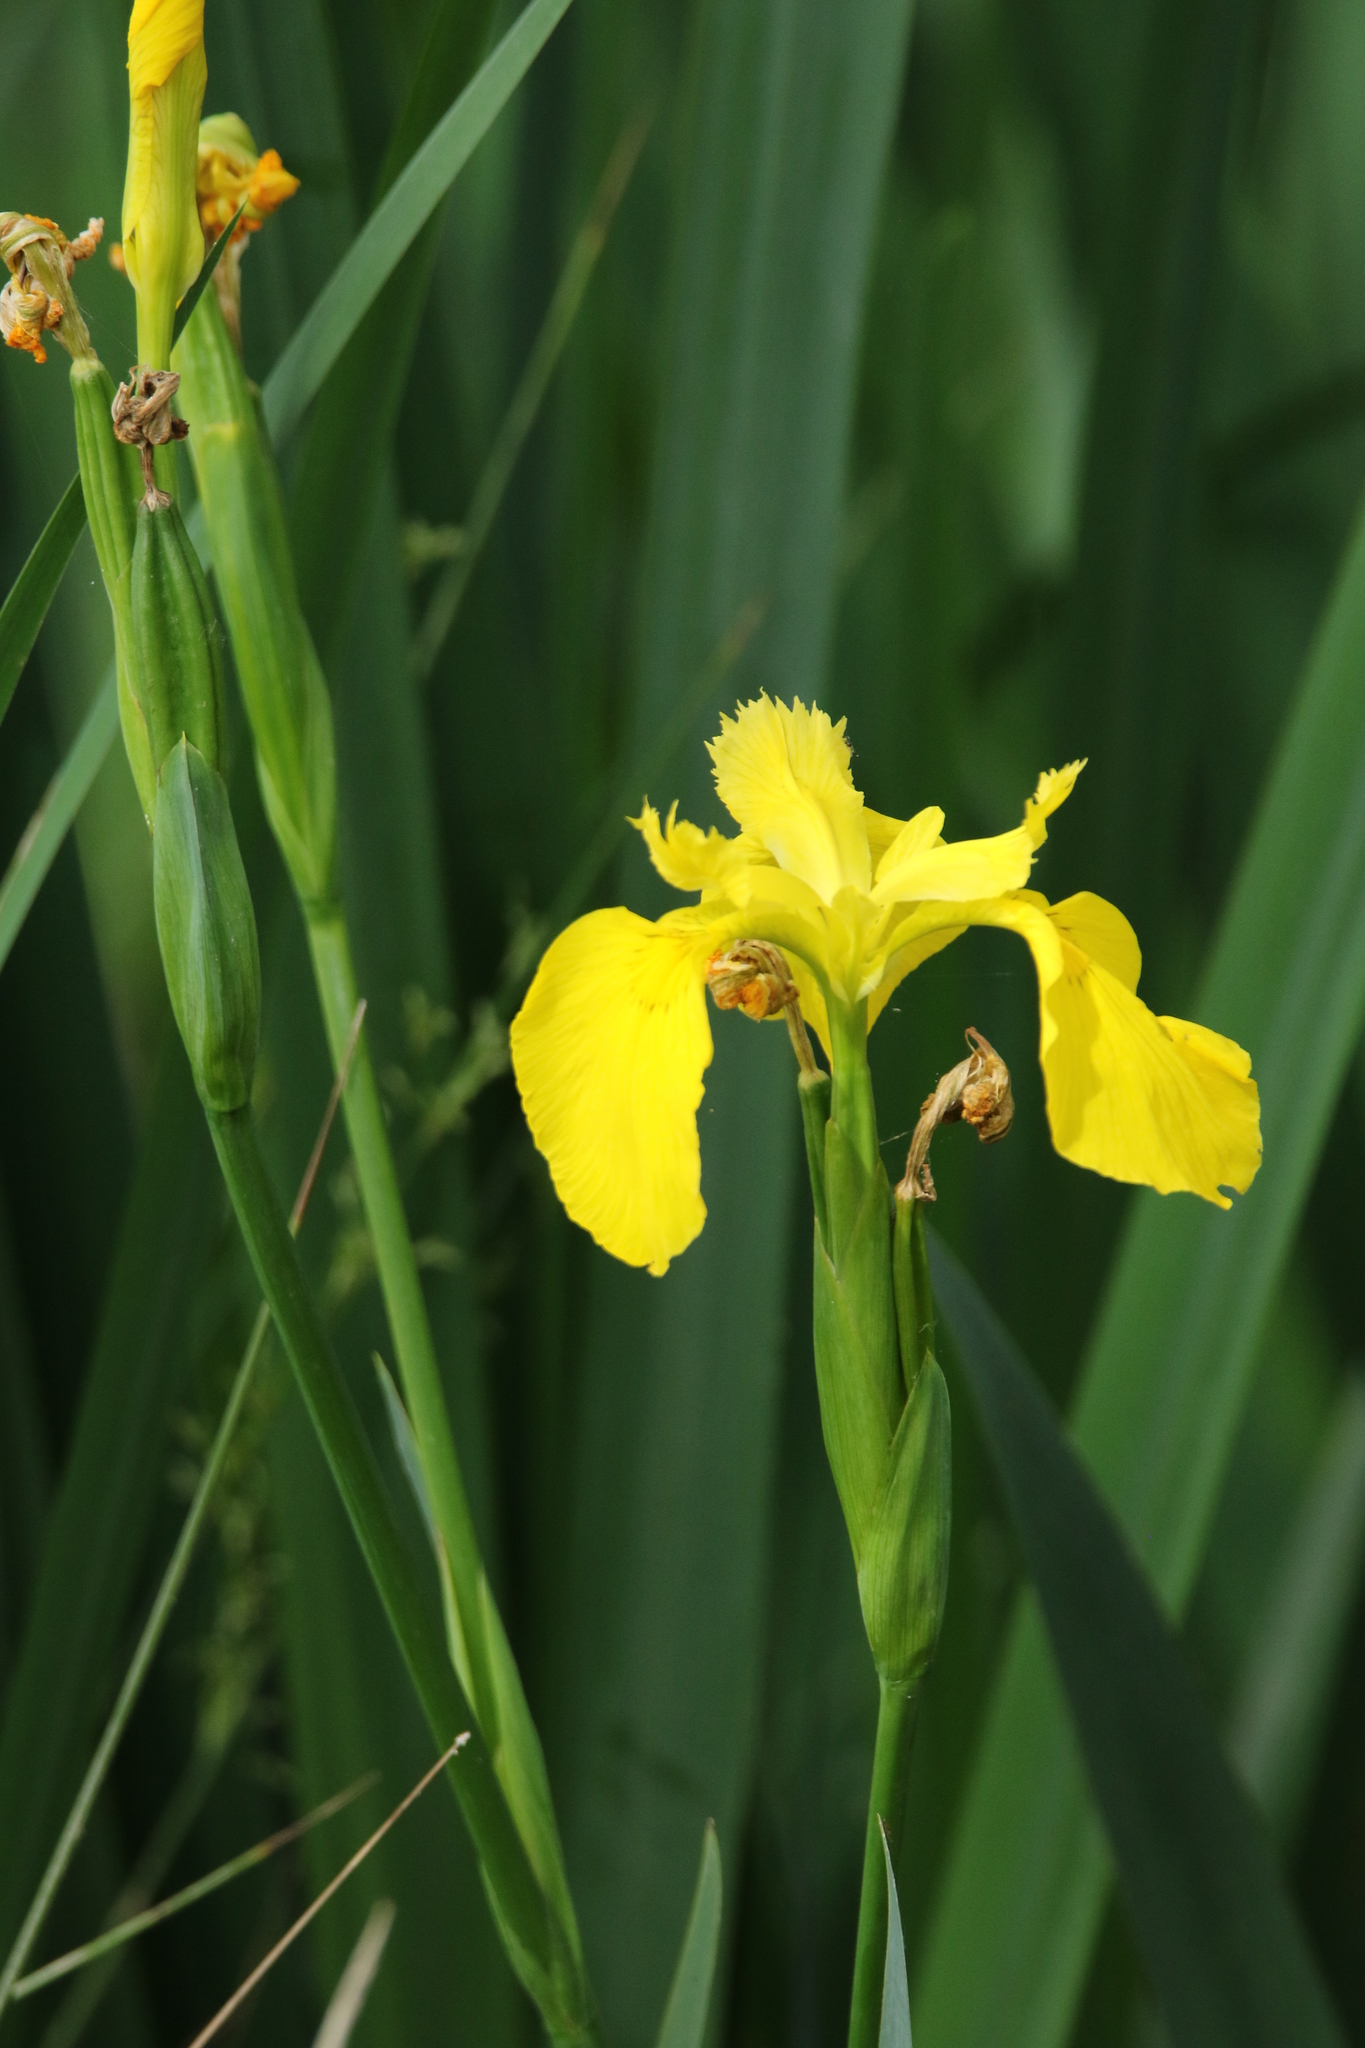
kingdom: Plantae
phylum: Tracheophyta
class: Liliopsida
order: Asparagales
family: Iridaceae
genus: Iris
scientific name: Iris pseudacorus
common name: Yellow flag
